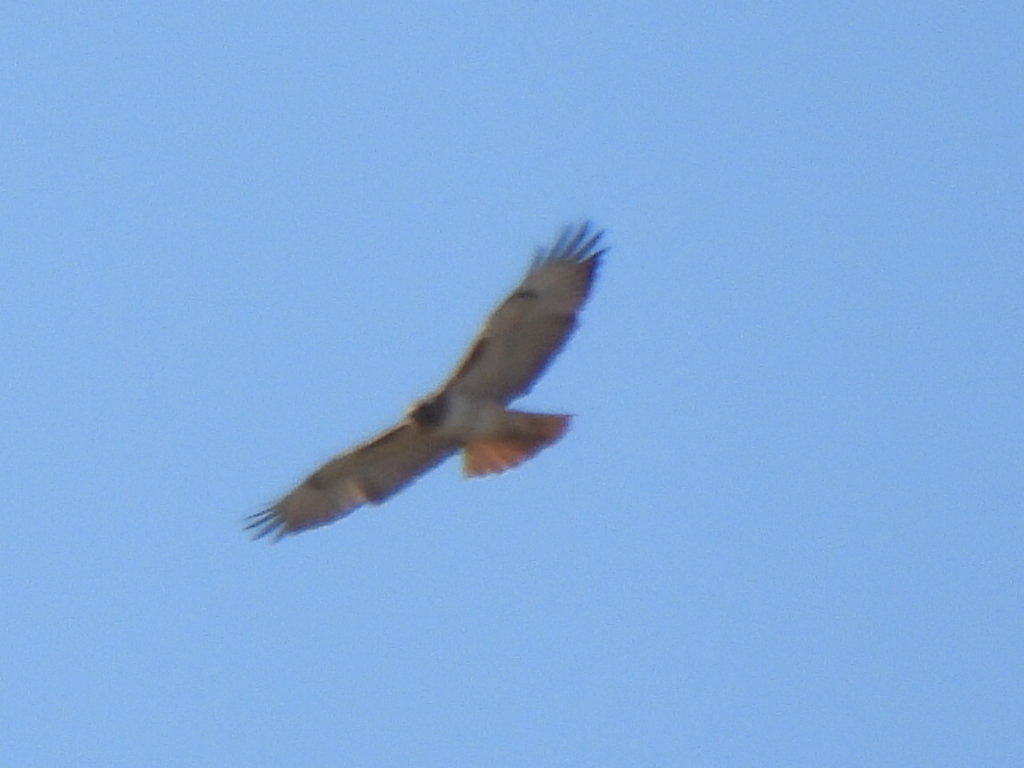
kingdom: Animalia
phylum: Chordata
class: Aves
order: Accipitriformes
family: Accipitridae
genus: Buteo
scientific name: Buteo jamaicensis
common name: Red-tailed hawk
